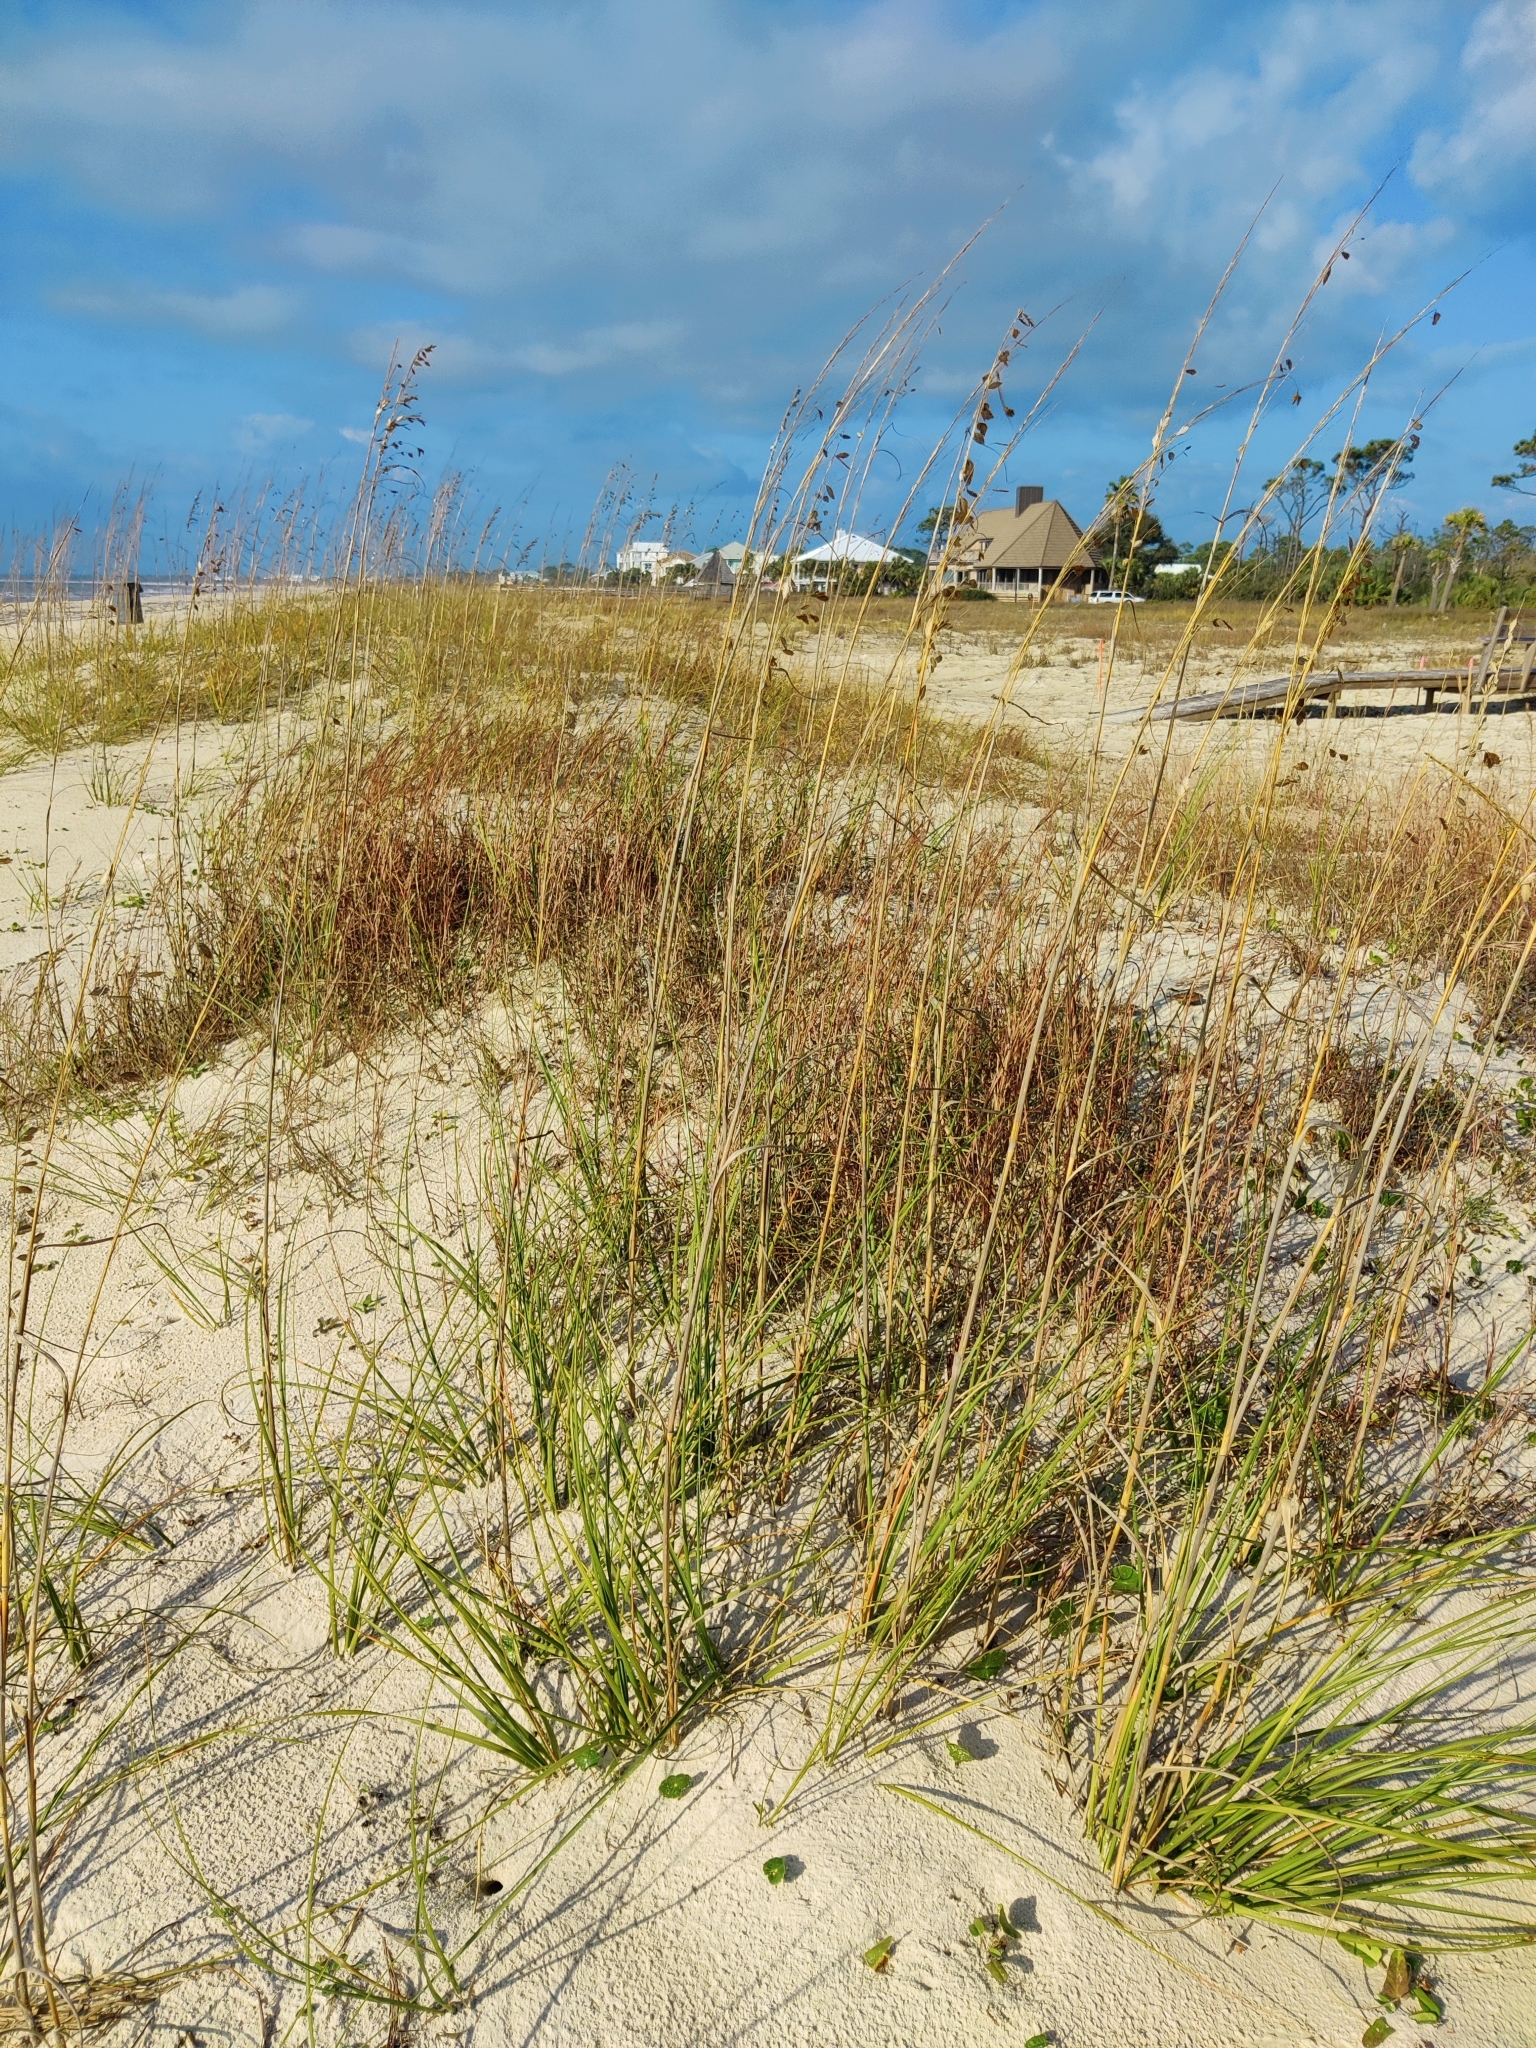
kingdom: Plantae
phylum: Tracheophyta
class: Liliopsida
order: Poales
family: Poaceae
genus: Uniola
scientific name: Uniola paniculata
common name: Seaside-oats
